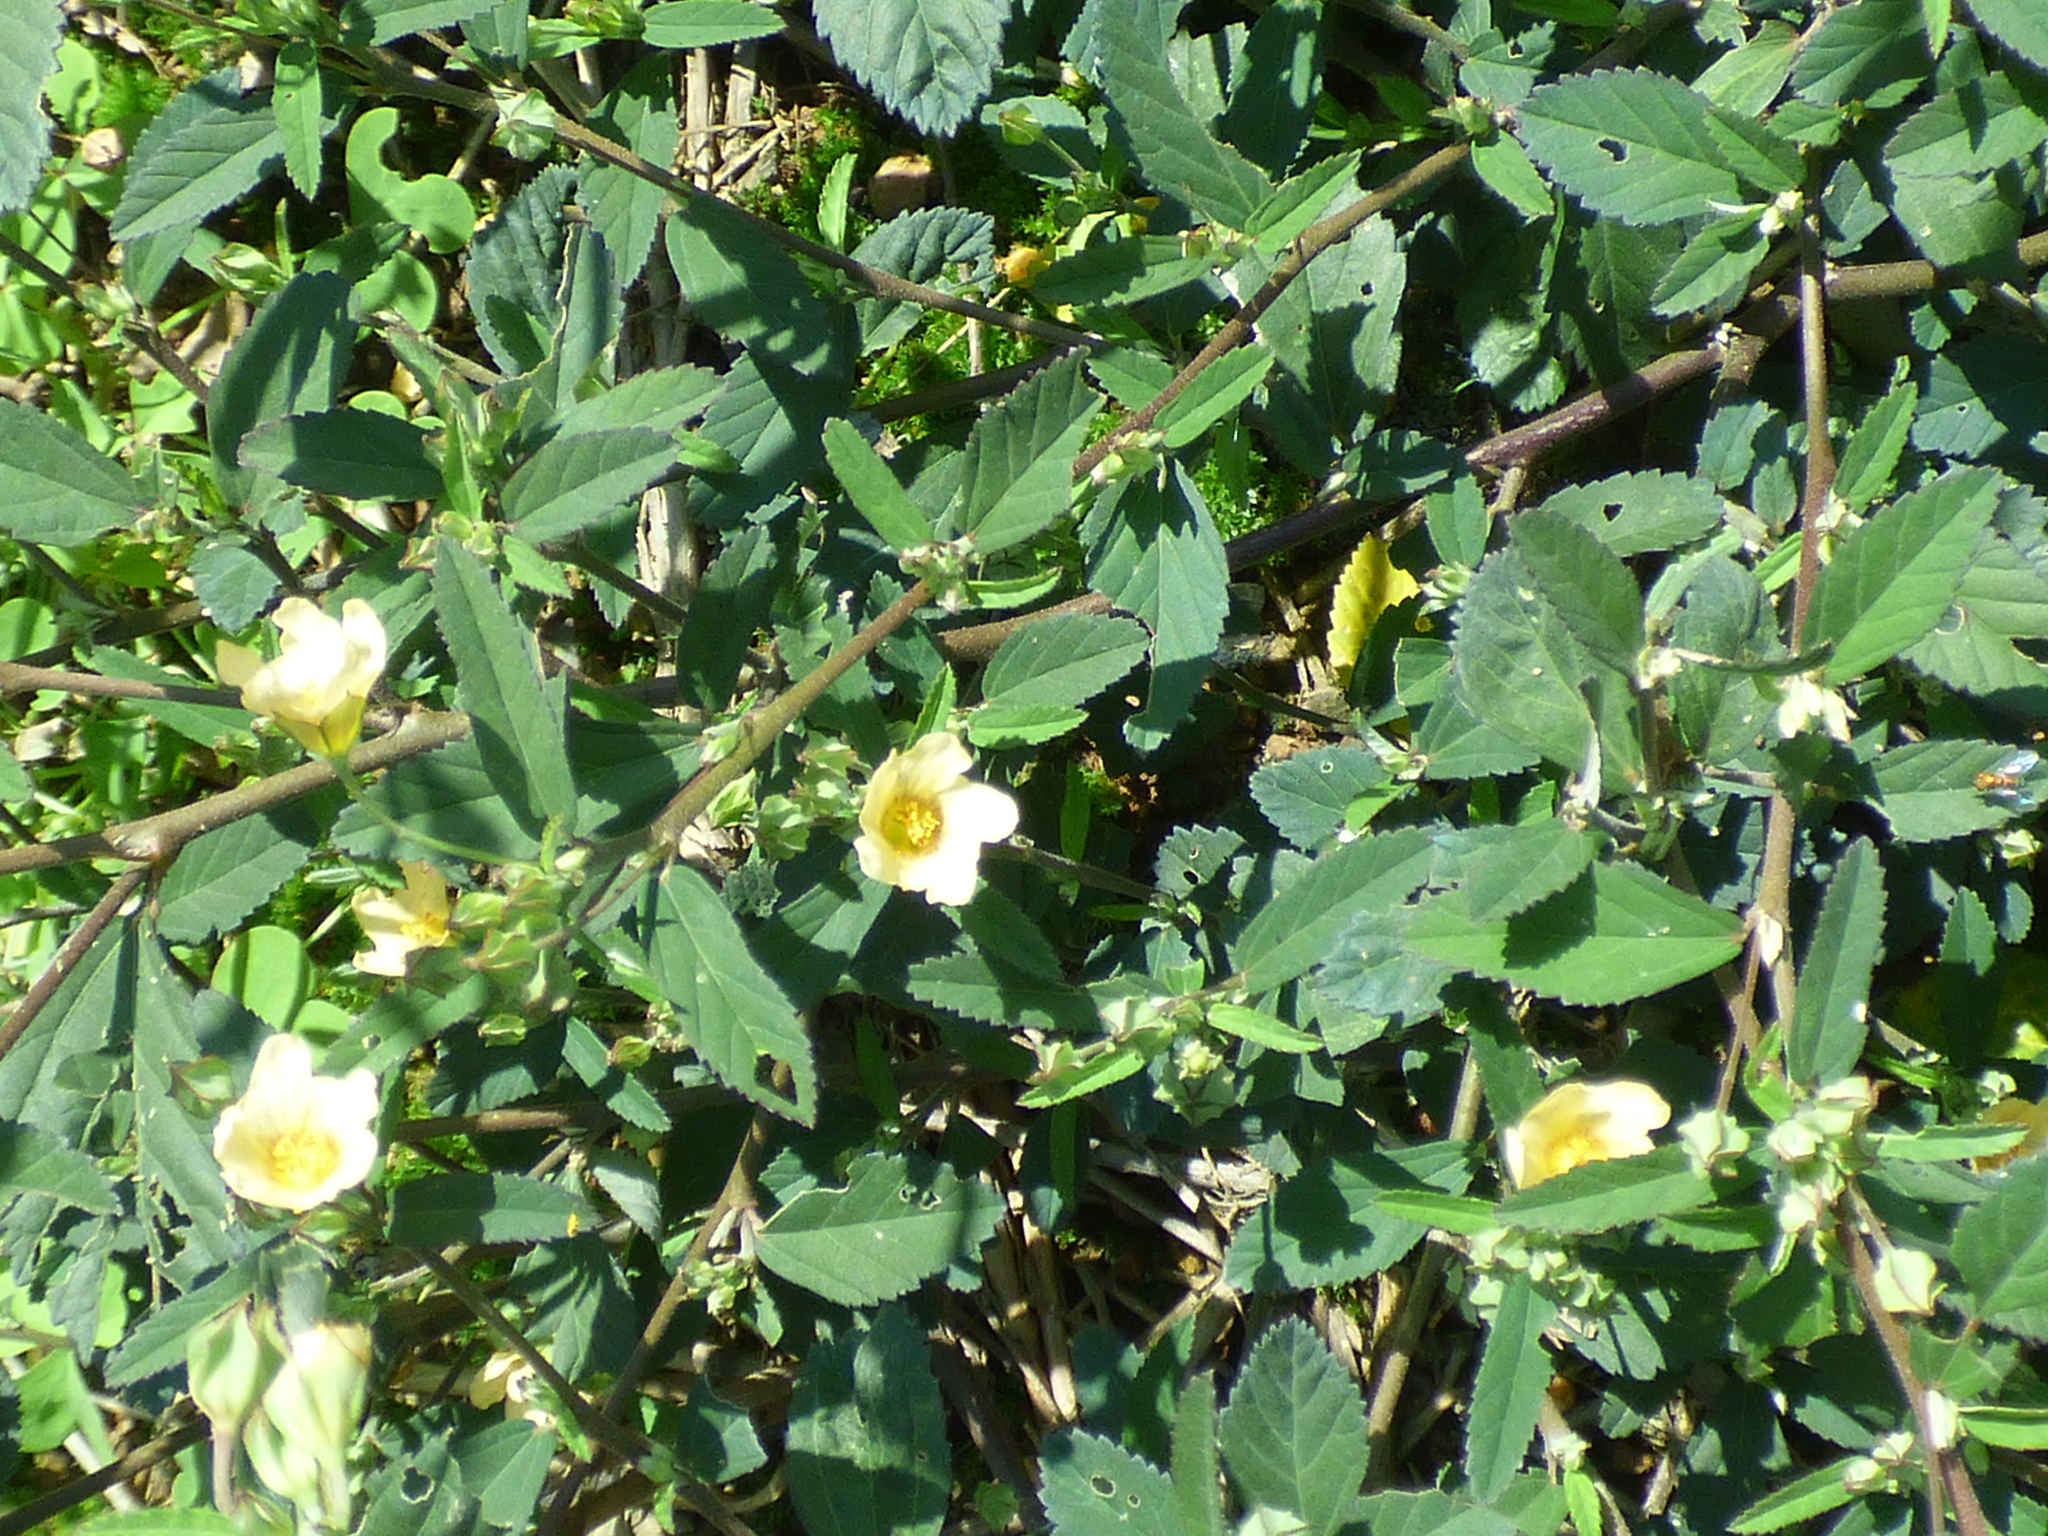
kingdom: Plantae
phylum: Tracheophyta
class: Magnoliopsida
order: Malvales
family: Malvaceae
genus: Sida
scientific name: Sida rhombifolia
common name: Queensland-hemp
